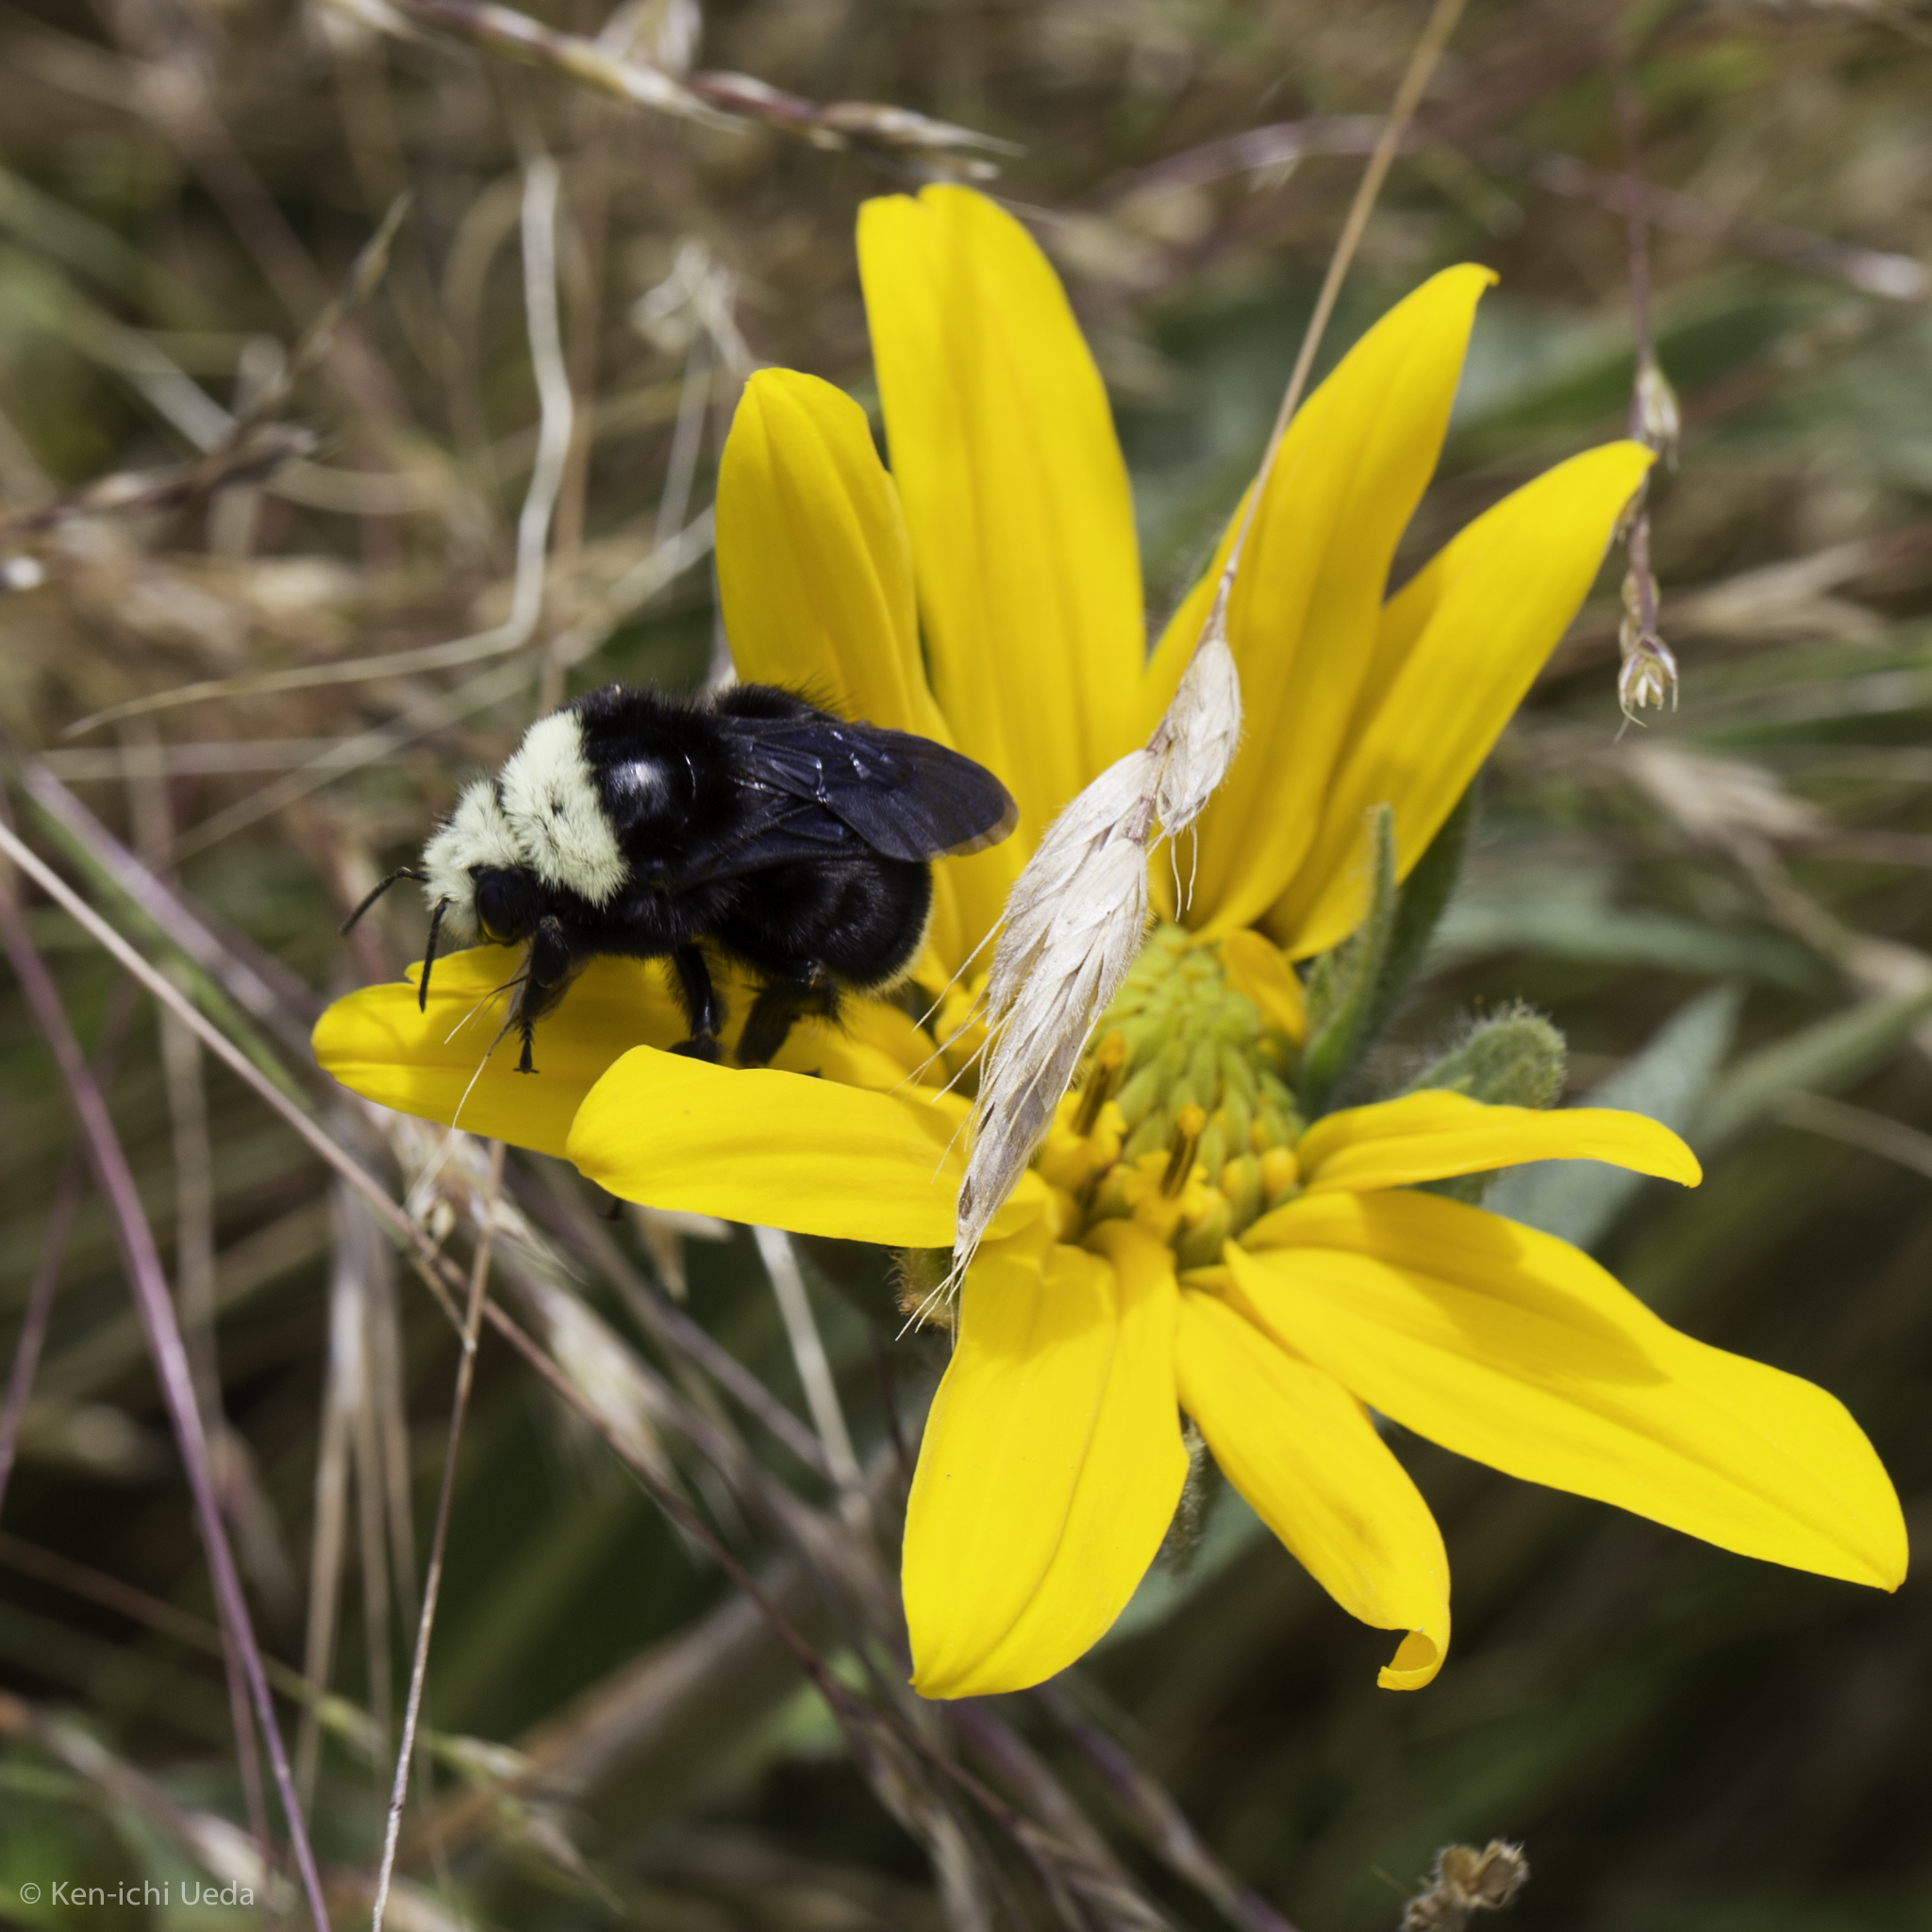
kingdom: Animalia
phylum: Arthropoda
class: Insecta
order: Hymenoptera
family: Apidae
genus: Bombus
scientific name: Bombus vosnesenskii
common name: Vosnesensky bumble bee
